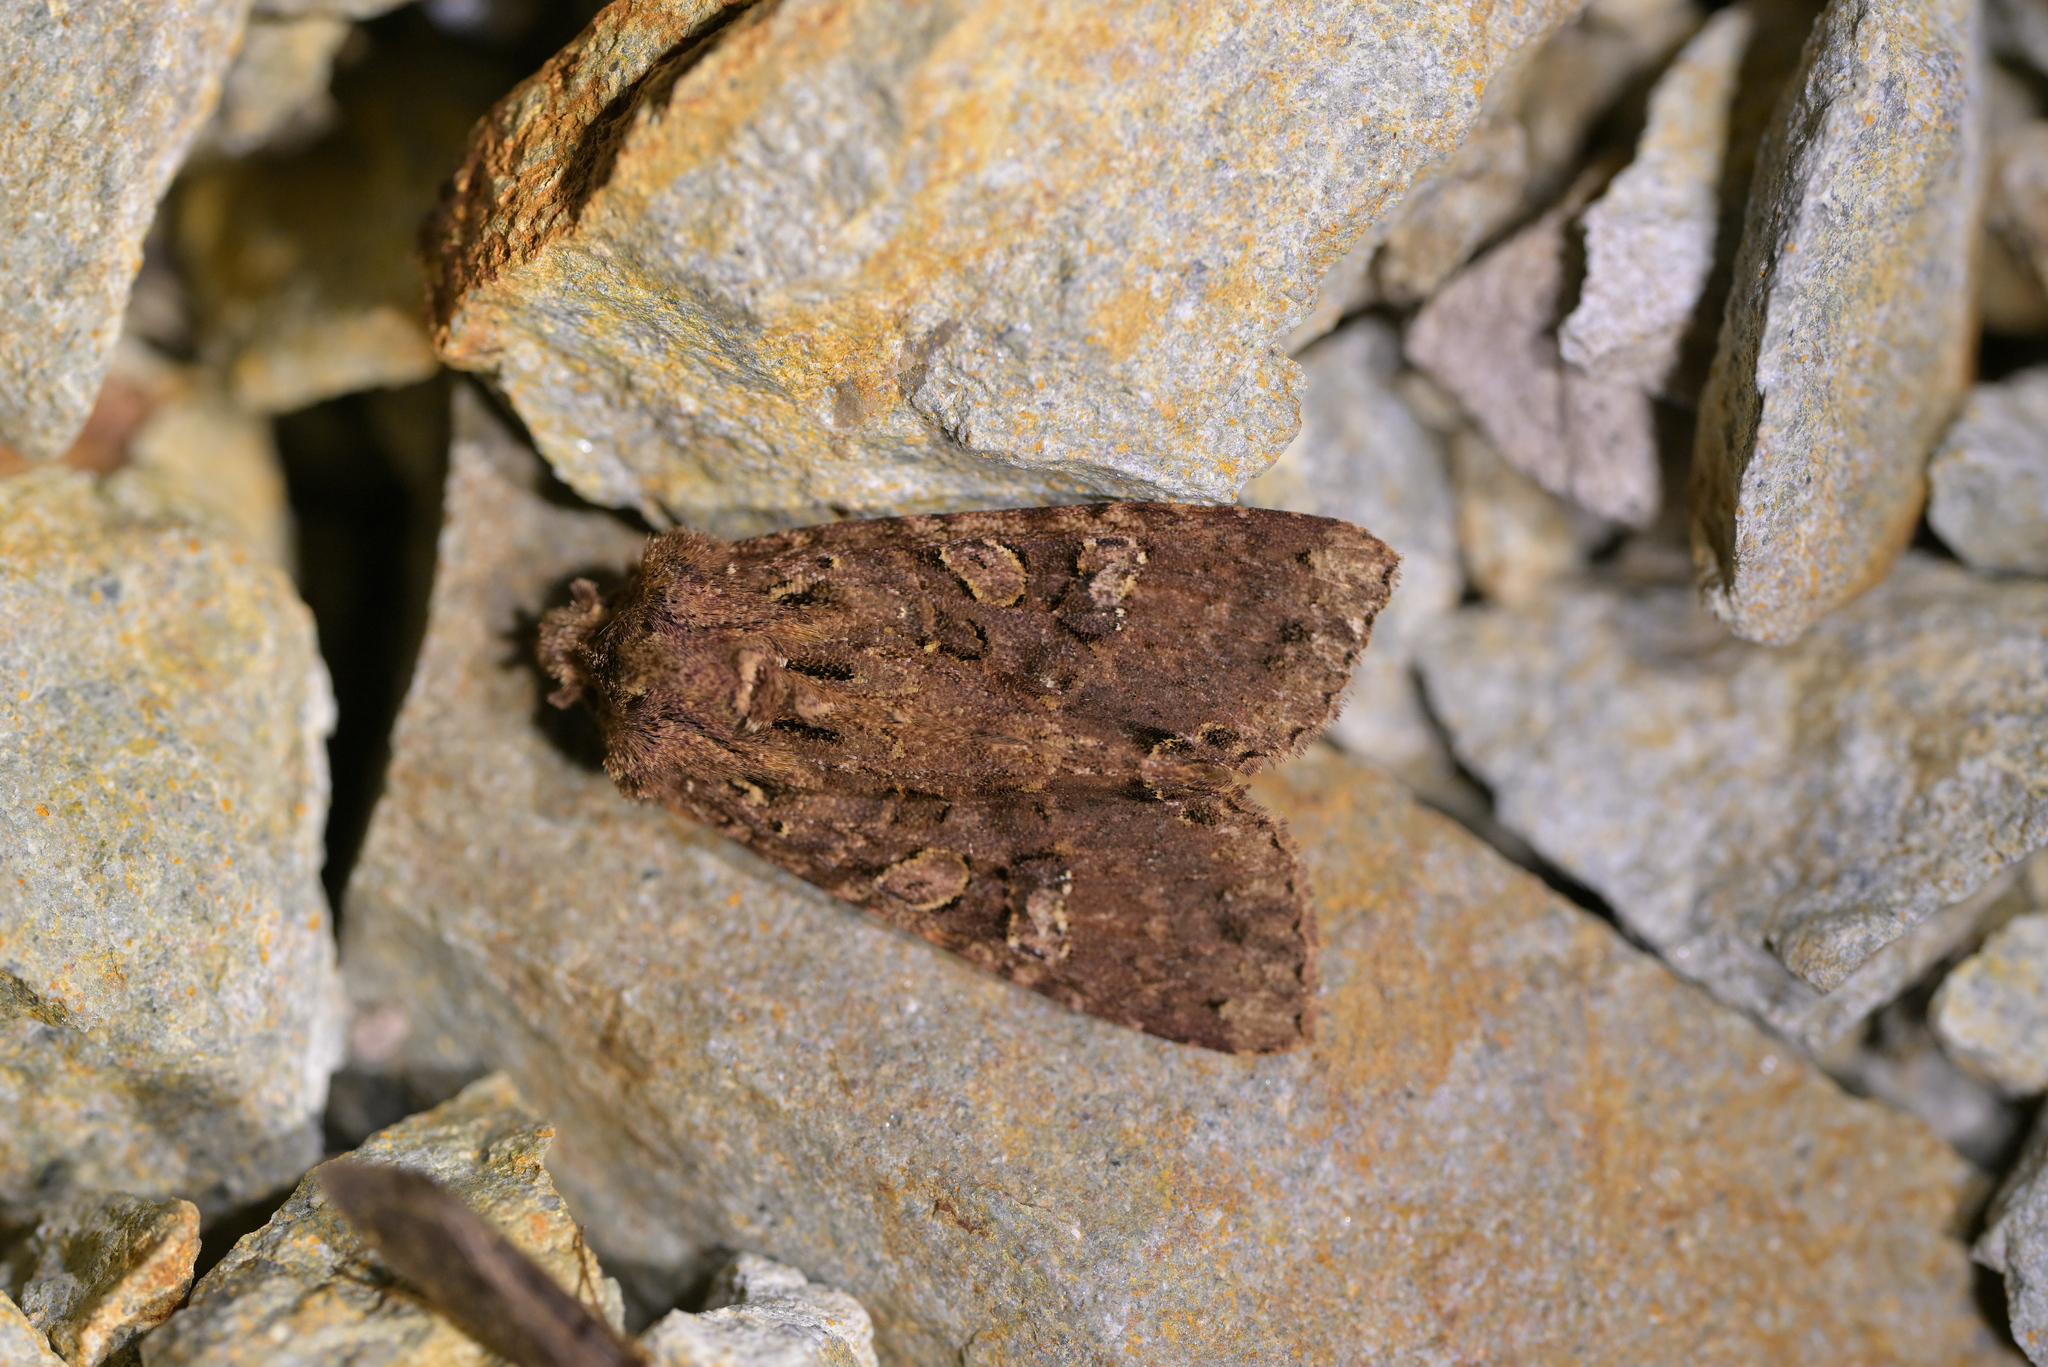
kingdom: Animalia
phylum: Arthropoda
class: Insecta
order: Lepidoptera
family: Noctuidae
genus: Meterana
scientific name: Meterana
